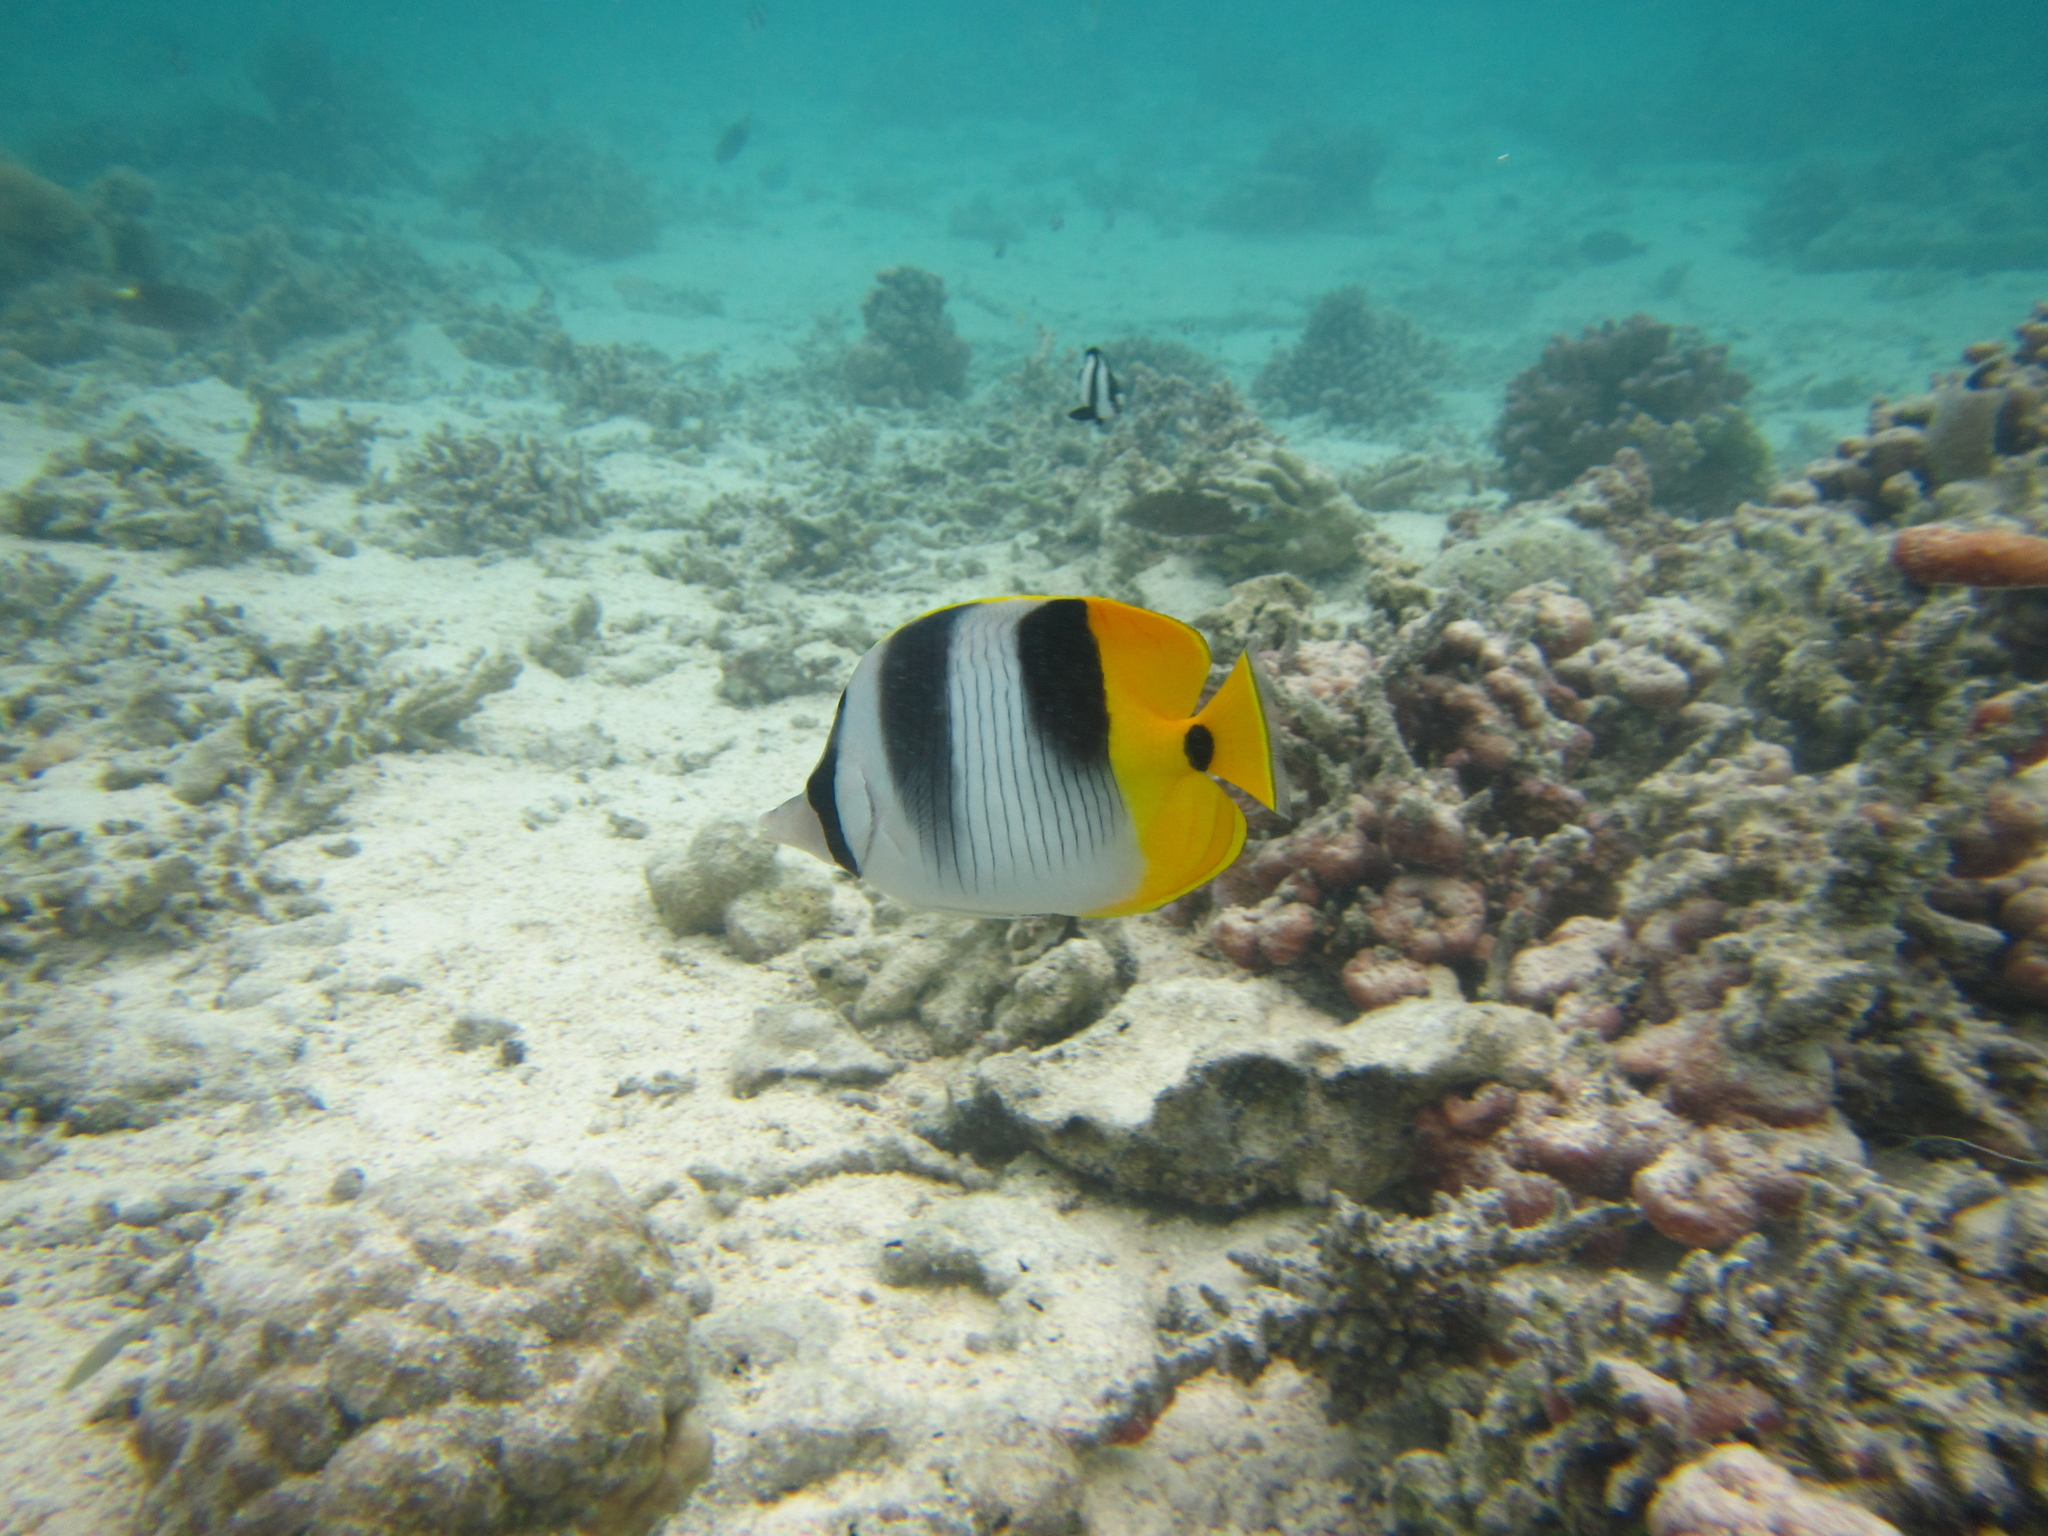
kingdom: Animalia
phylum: Chordata
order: Perciformes
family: Chaetodontidae
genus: Chaetodon
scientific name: Chaetodon ulietensis
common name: Pacific double-saddle butterflyfish
